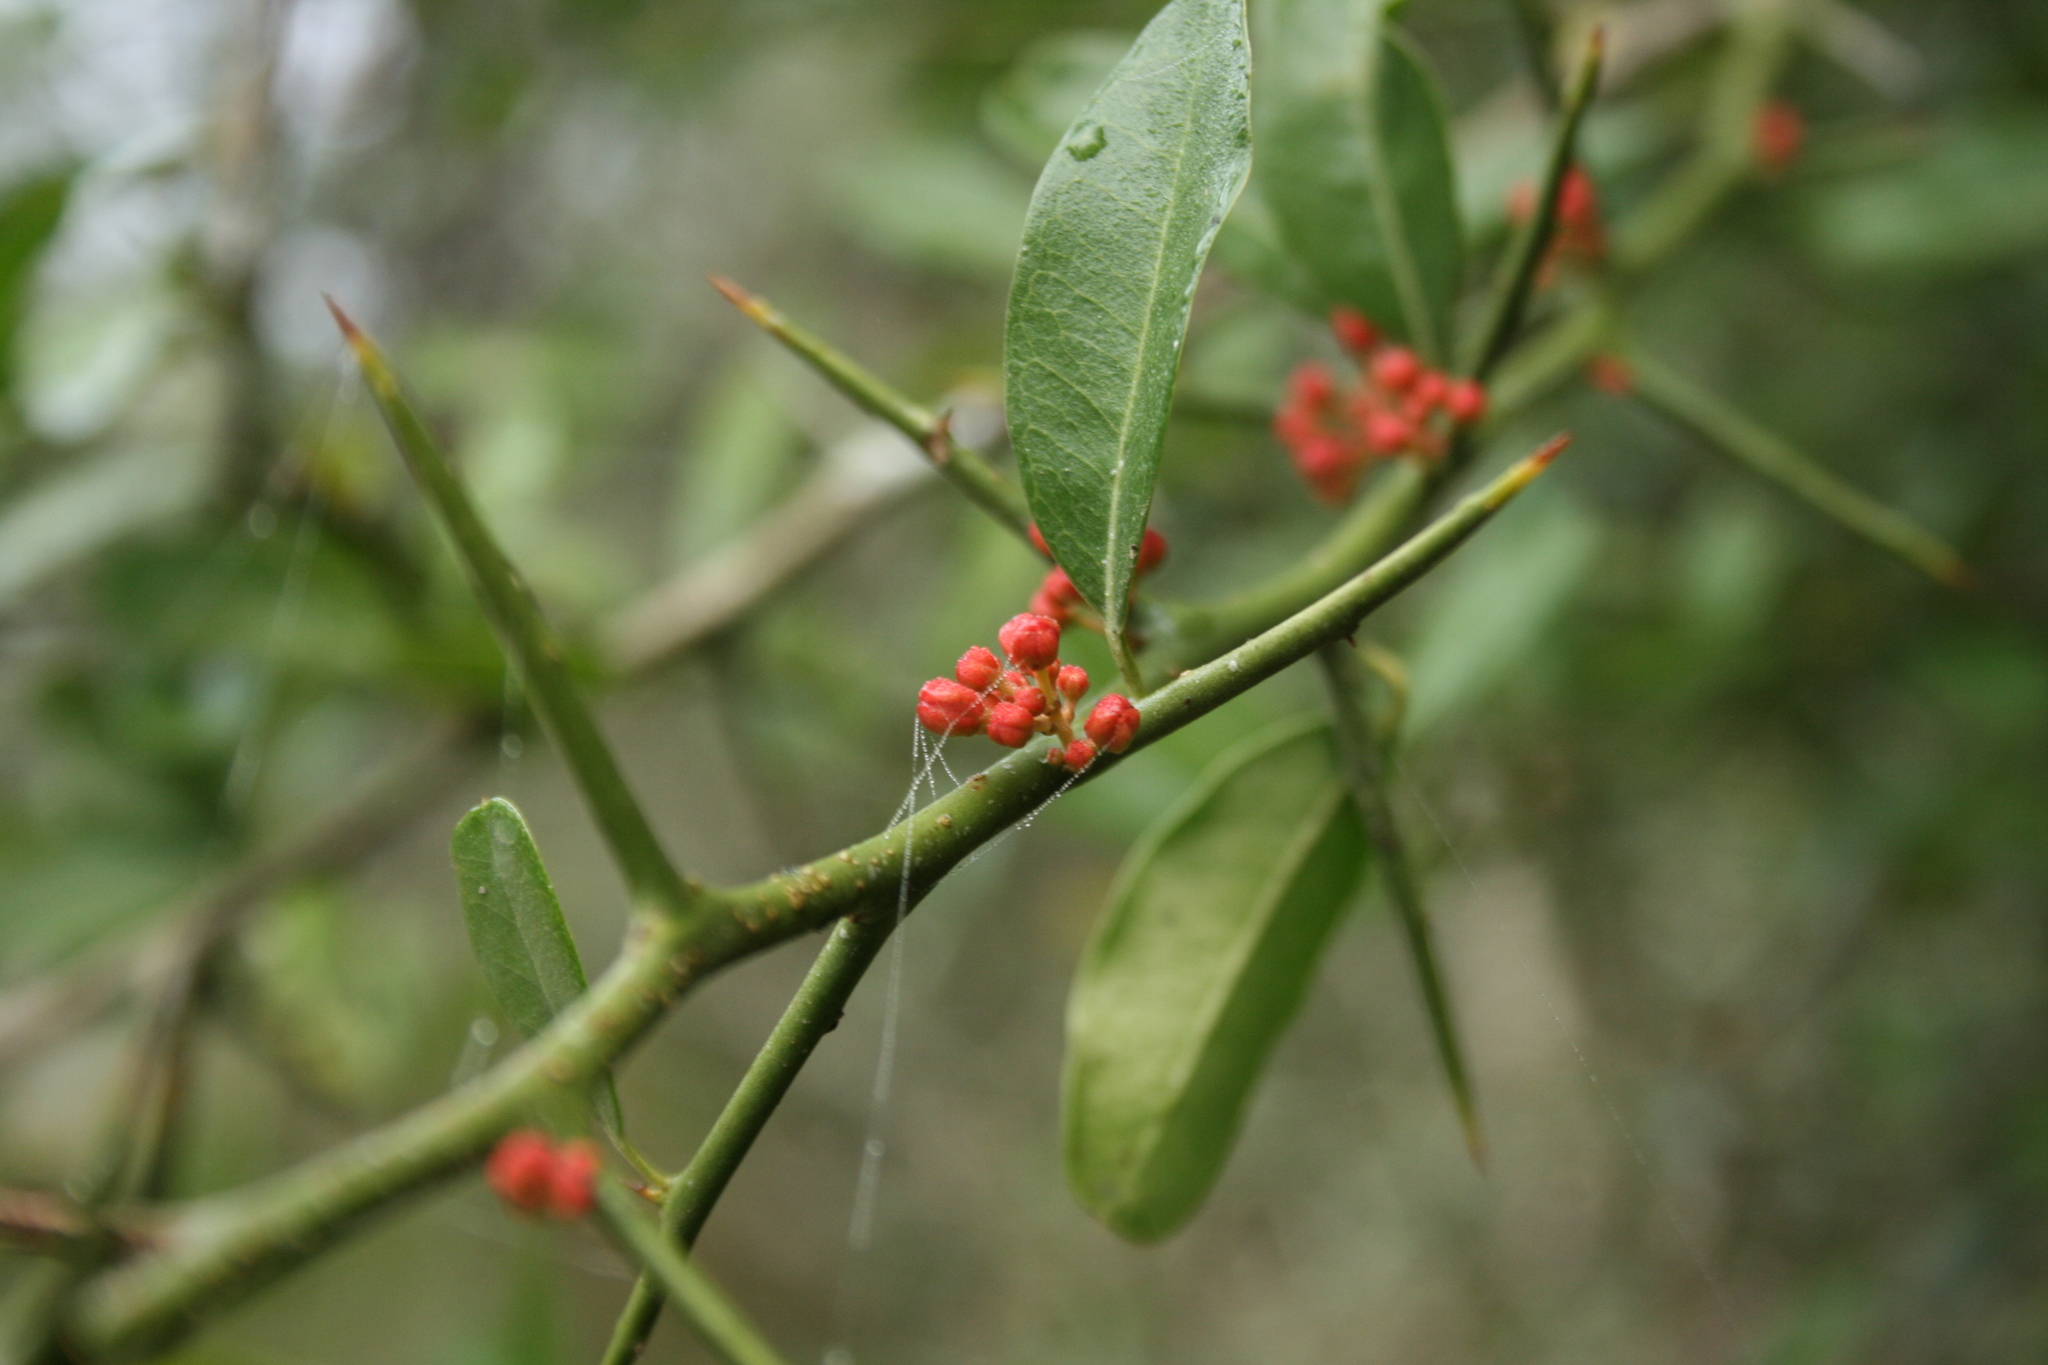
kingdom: Plantae
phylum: Tracheophyta
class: Magnoliopsida
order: Sapindales
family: Simaroubaceae
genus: Castela
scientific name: Castela coccinea
